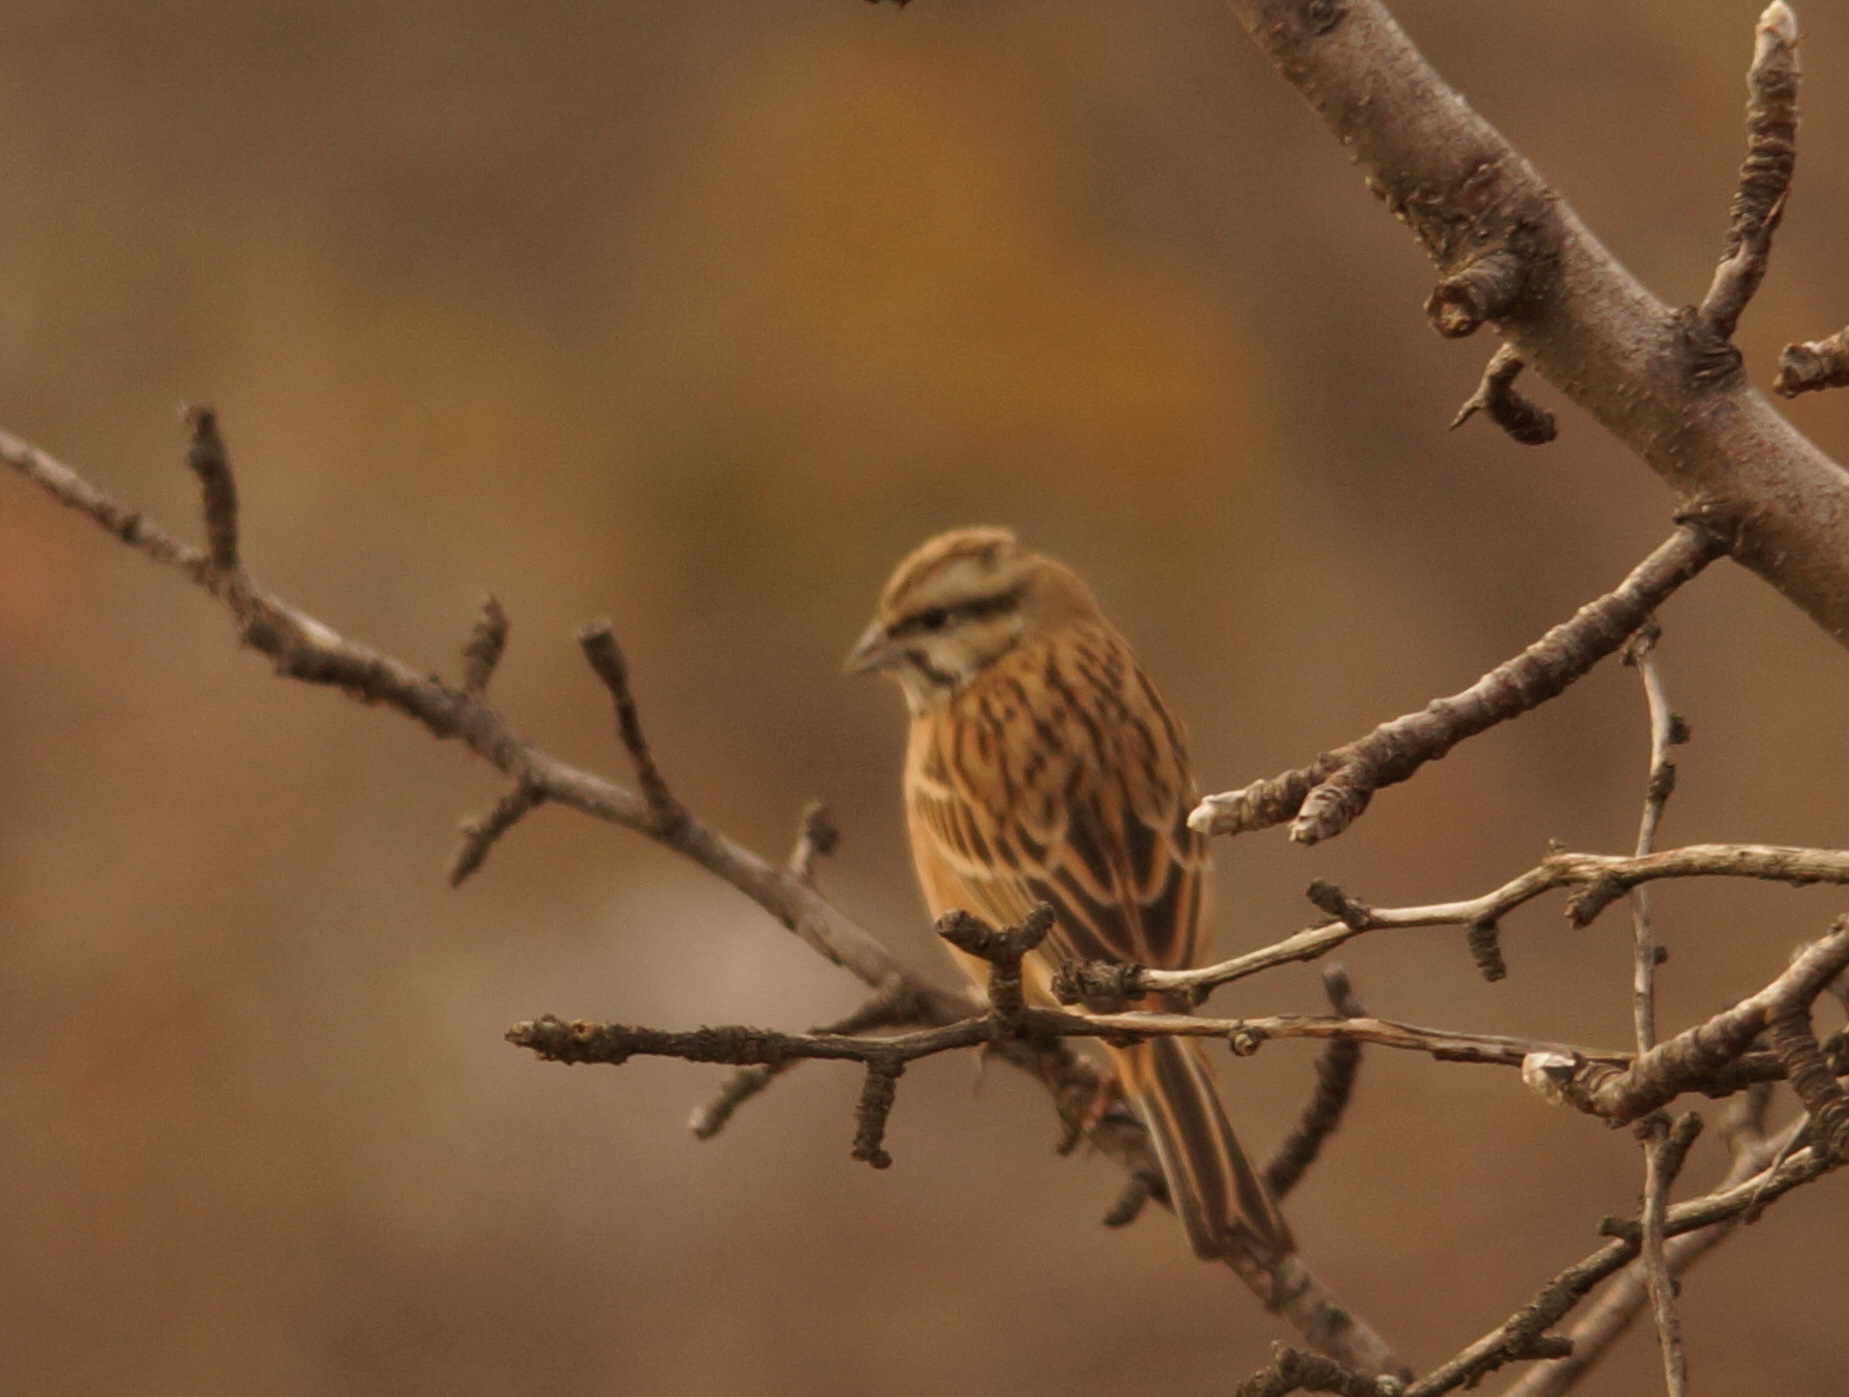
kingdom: Animalia
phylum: Chordata
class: Aves
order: Passeriformes
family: Emberizidae
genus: Emberiza
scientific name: Emberiza cia
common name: Rock bunting
